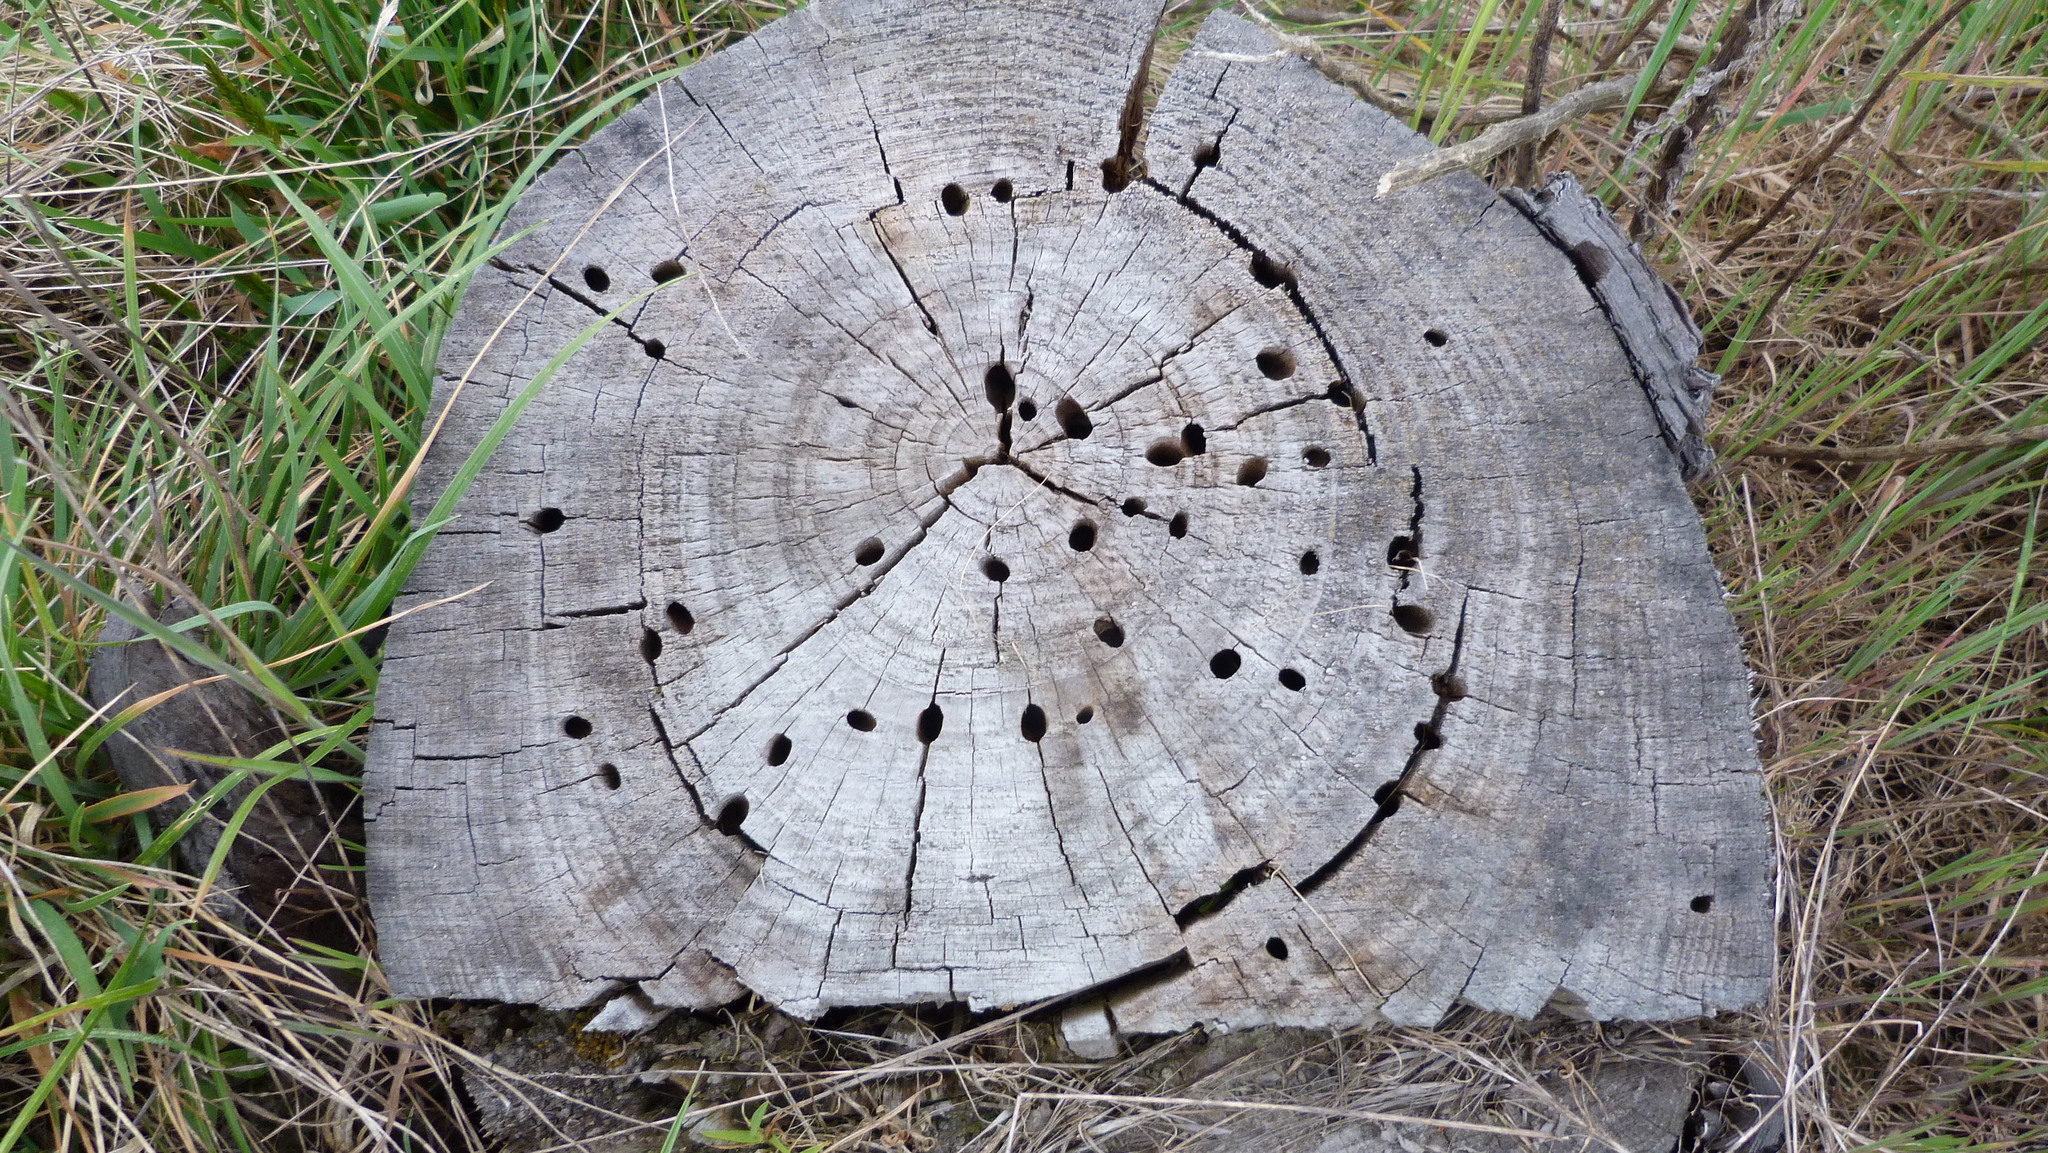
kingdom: Animalia
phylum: Arthropoda
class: Insecta
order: Coleoptera
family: Cerambycidae
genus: Prionoplus
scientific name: Prionoplus reticularis
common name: Huhu beetle
